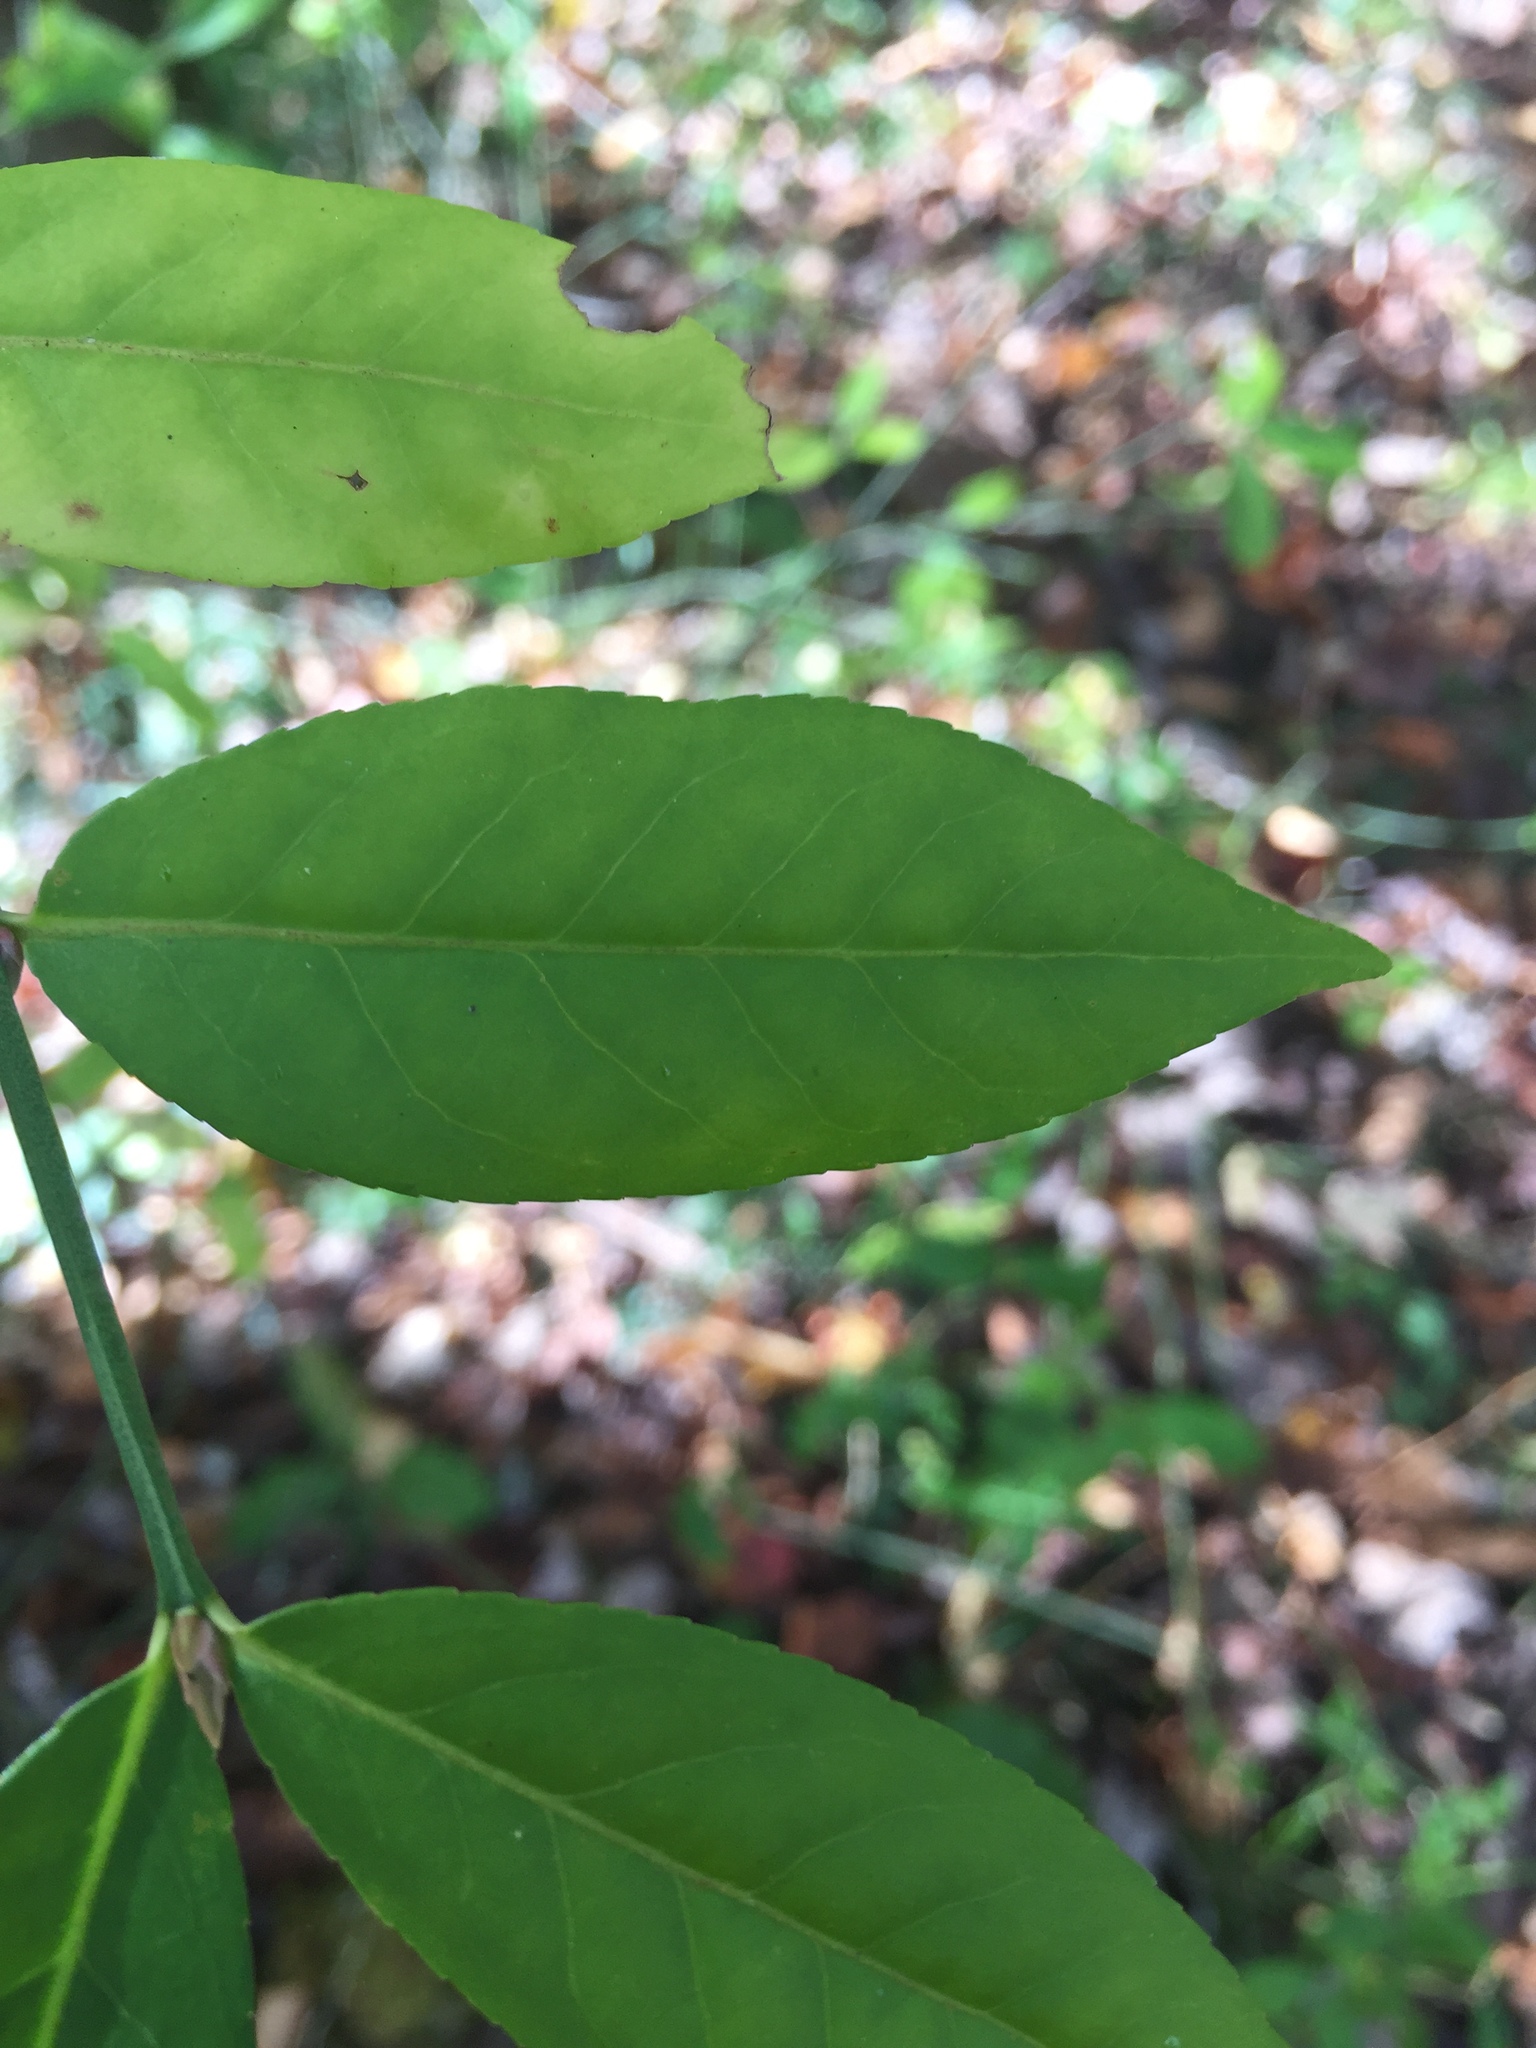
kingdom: Plantae
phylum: Tracheophyta
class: Magnoliopsida
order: Celastrales
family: Celastraceae
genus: Euonymus
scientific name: Euonymus americanus
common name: Bursting-heart
